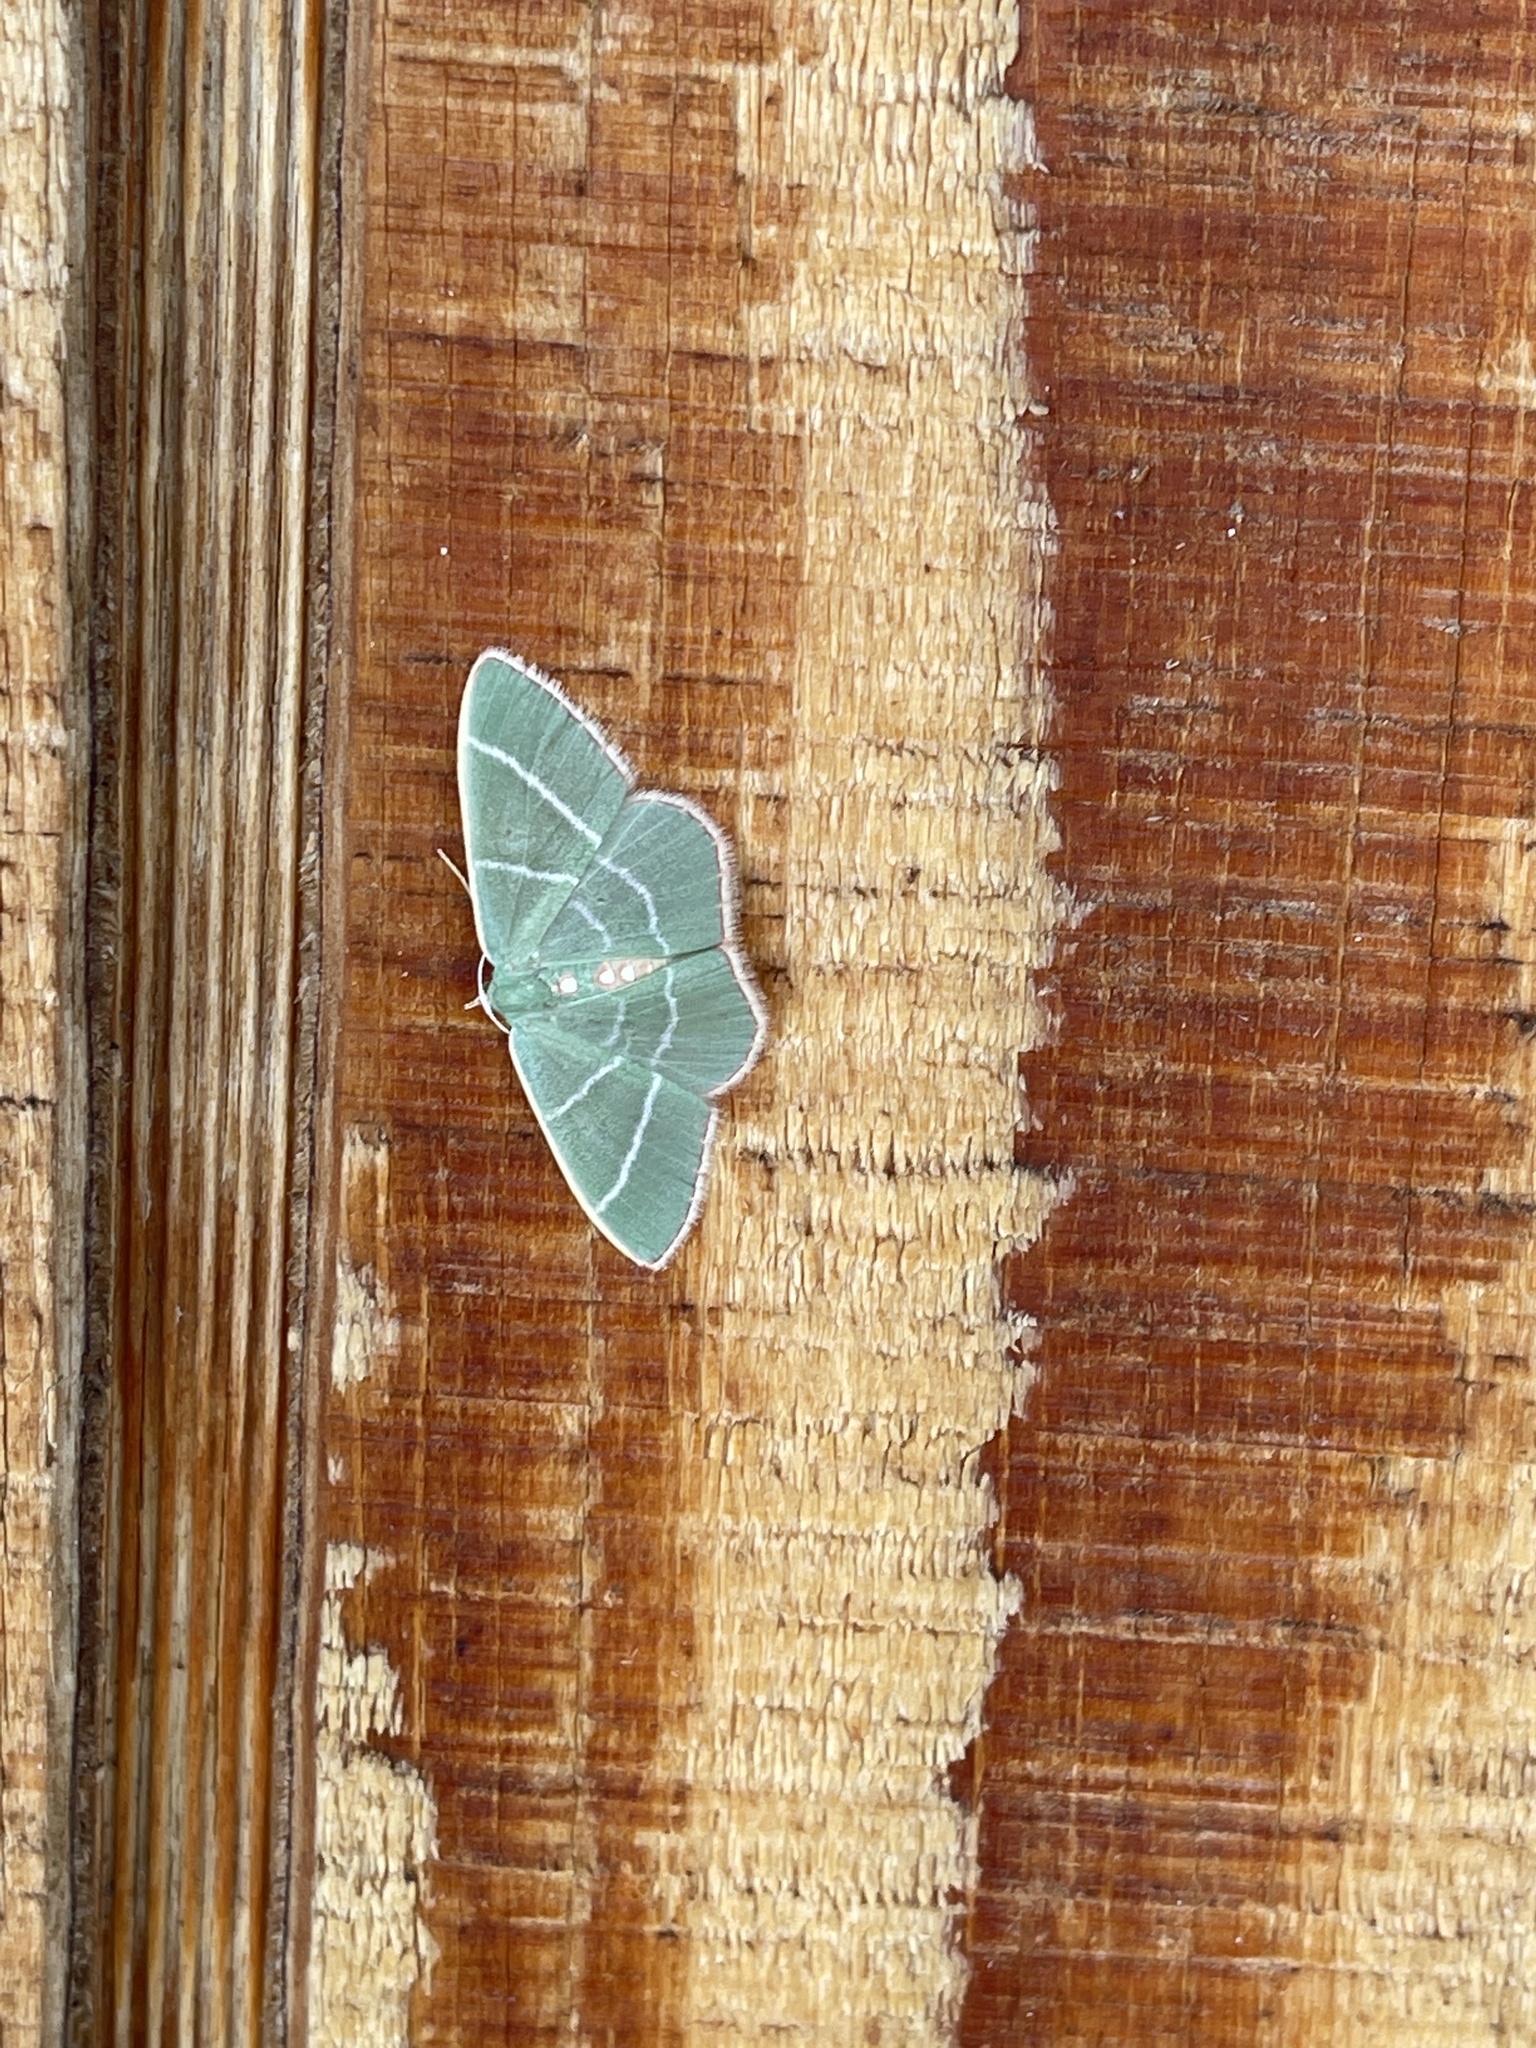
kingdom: Animalia
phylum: Arthropoda
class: Insecta
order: Lepidoptera
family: Geometridae
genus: Nemoria
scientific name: Nemoria obliqua
